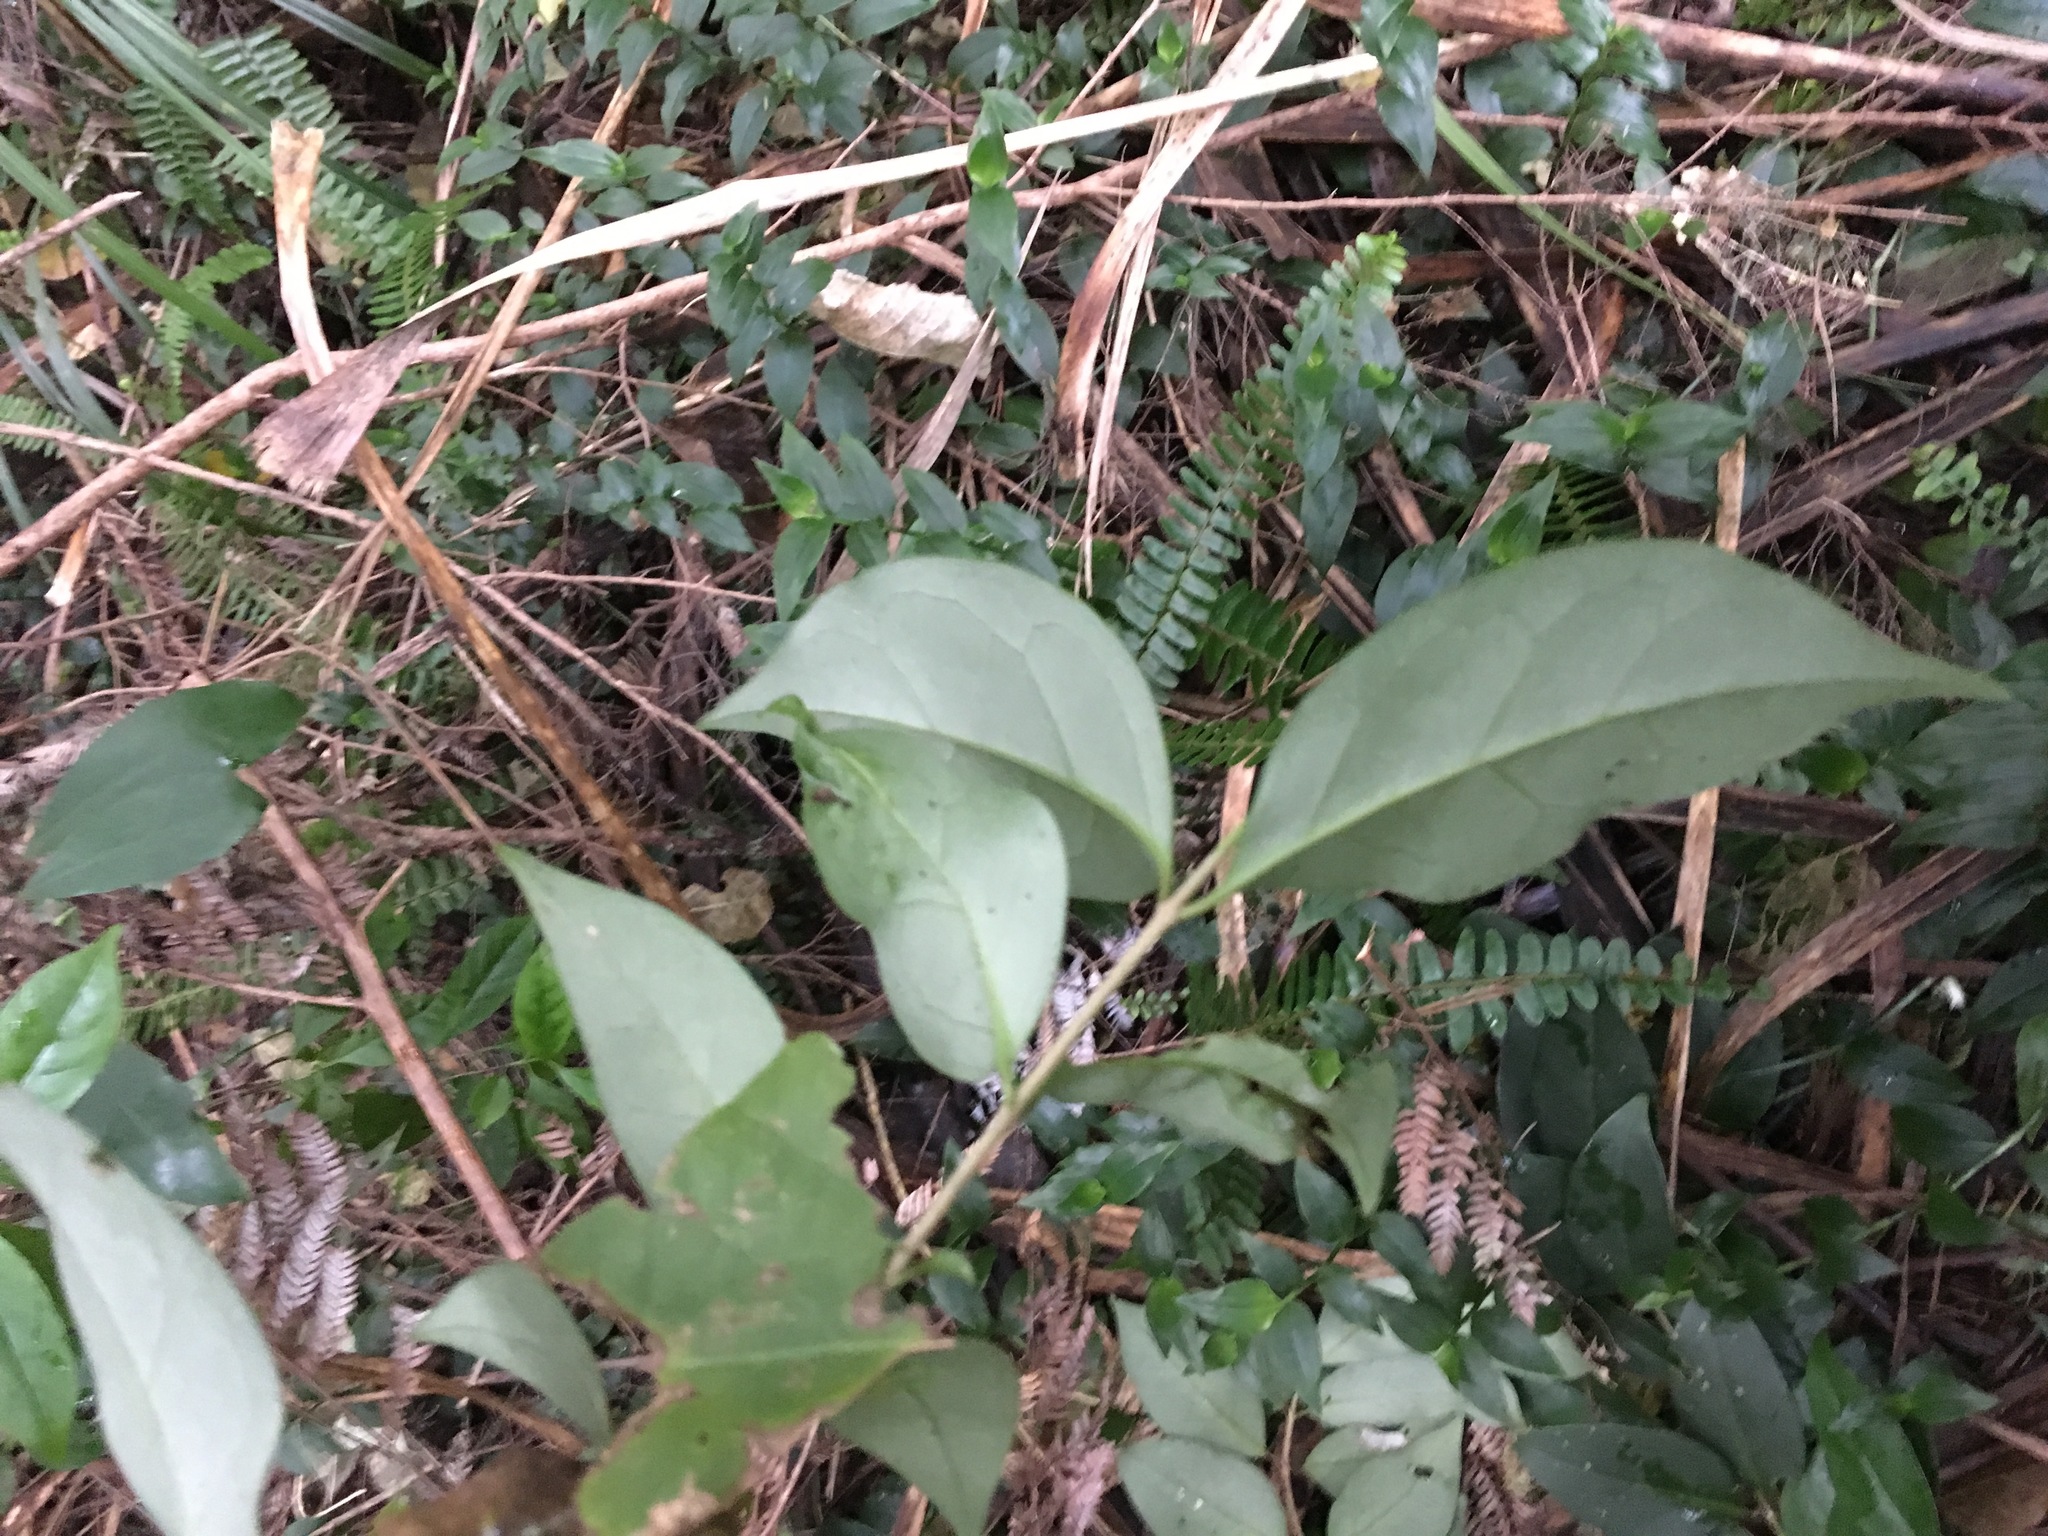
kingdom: Plantae
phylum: Tracheophyta
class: Magnoliopsida
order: Lamiales
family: Oleaceae
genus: Ligustrum
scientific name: Ligustrum lucidum
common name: Glossy privet
